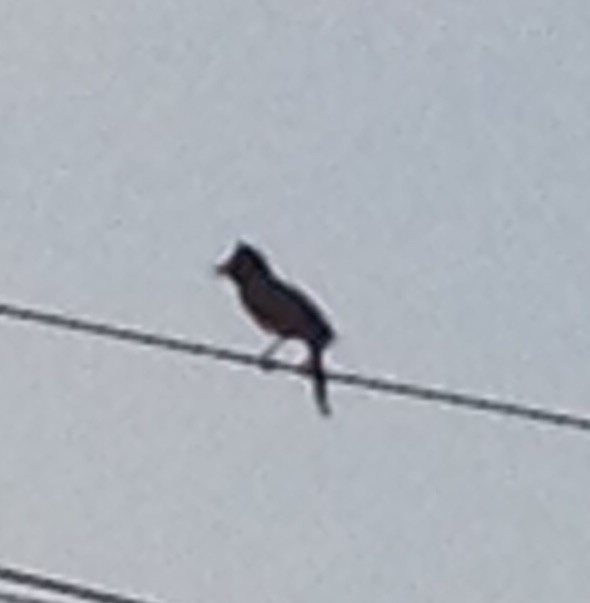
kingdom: Animalia
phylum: Chordata
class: Aves
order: Passeriformes
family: Pycnonotidae
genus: Pycnonotus
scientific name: Pycnonotus cafer
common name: Red-vented bulbul
